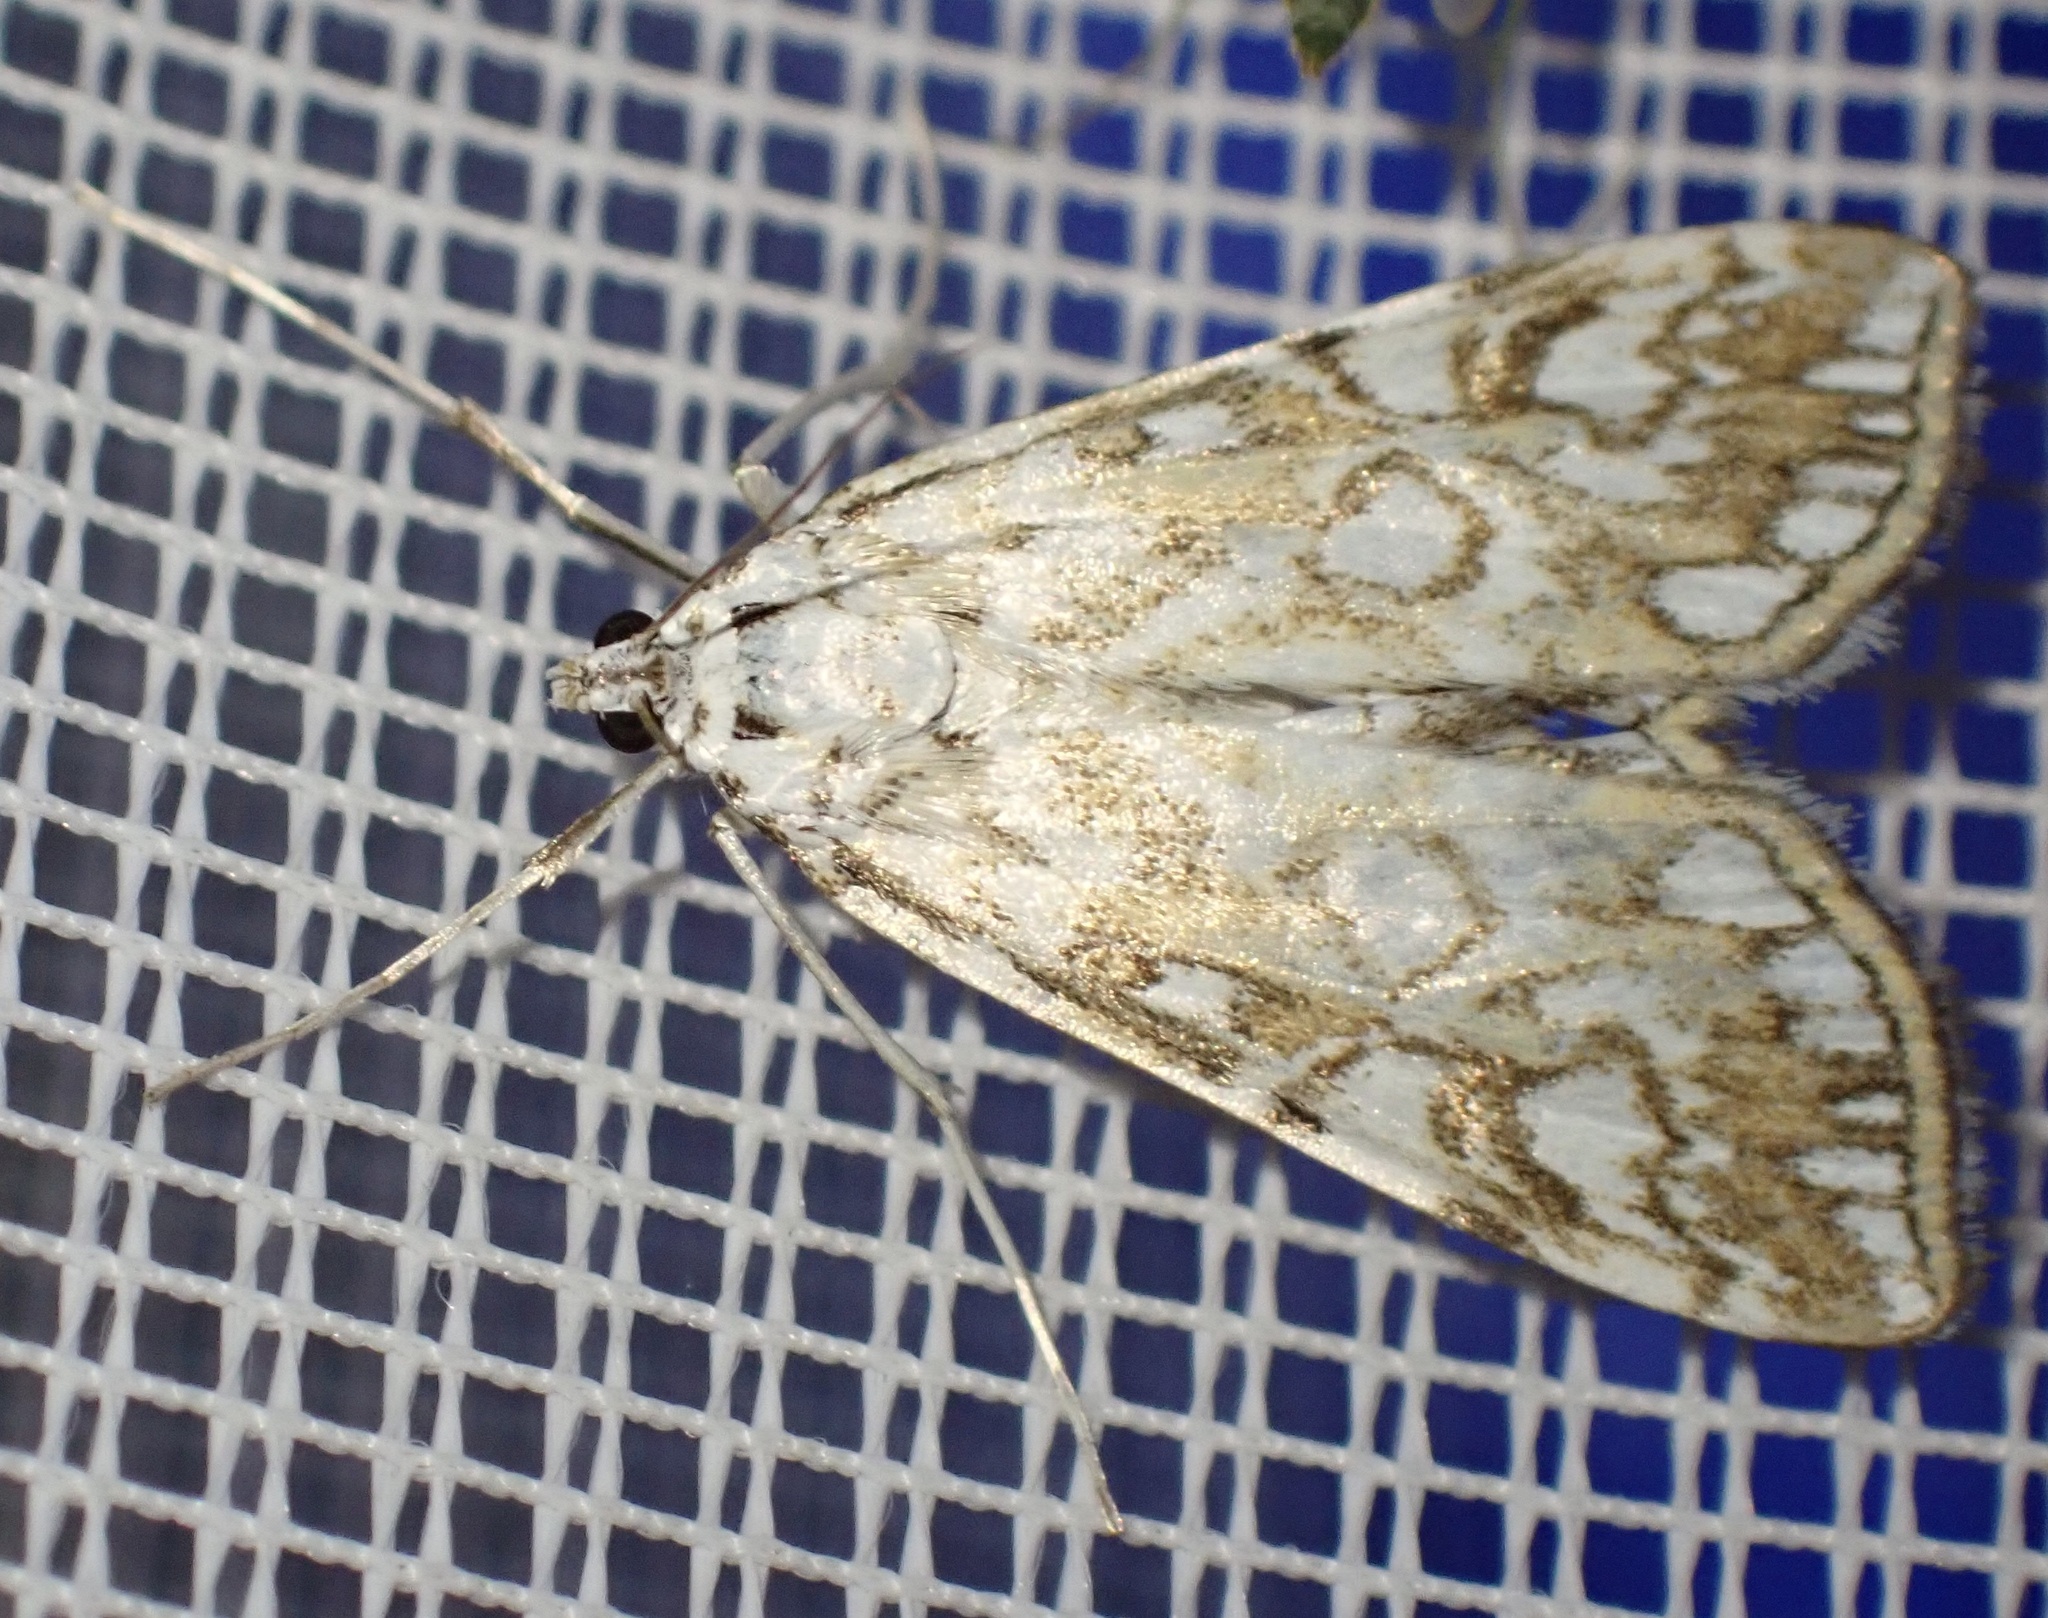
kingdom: Animalia
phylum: Arthropoda
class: Insecta
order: Lepidoptera
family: Crambidae
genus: Elophila
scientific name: Elophila nymphaeata
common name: Brown china-mark
